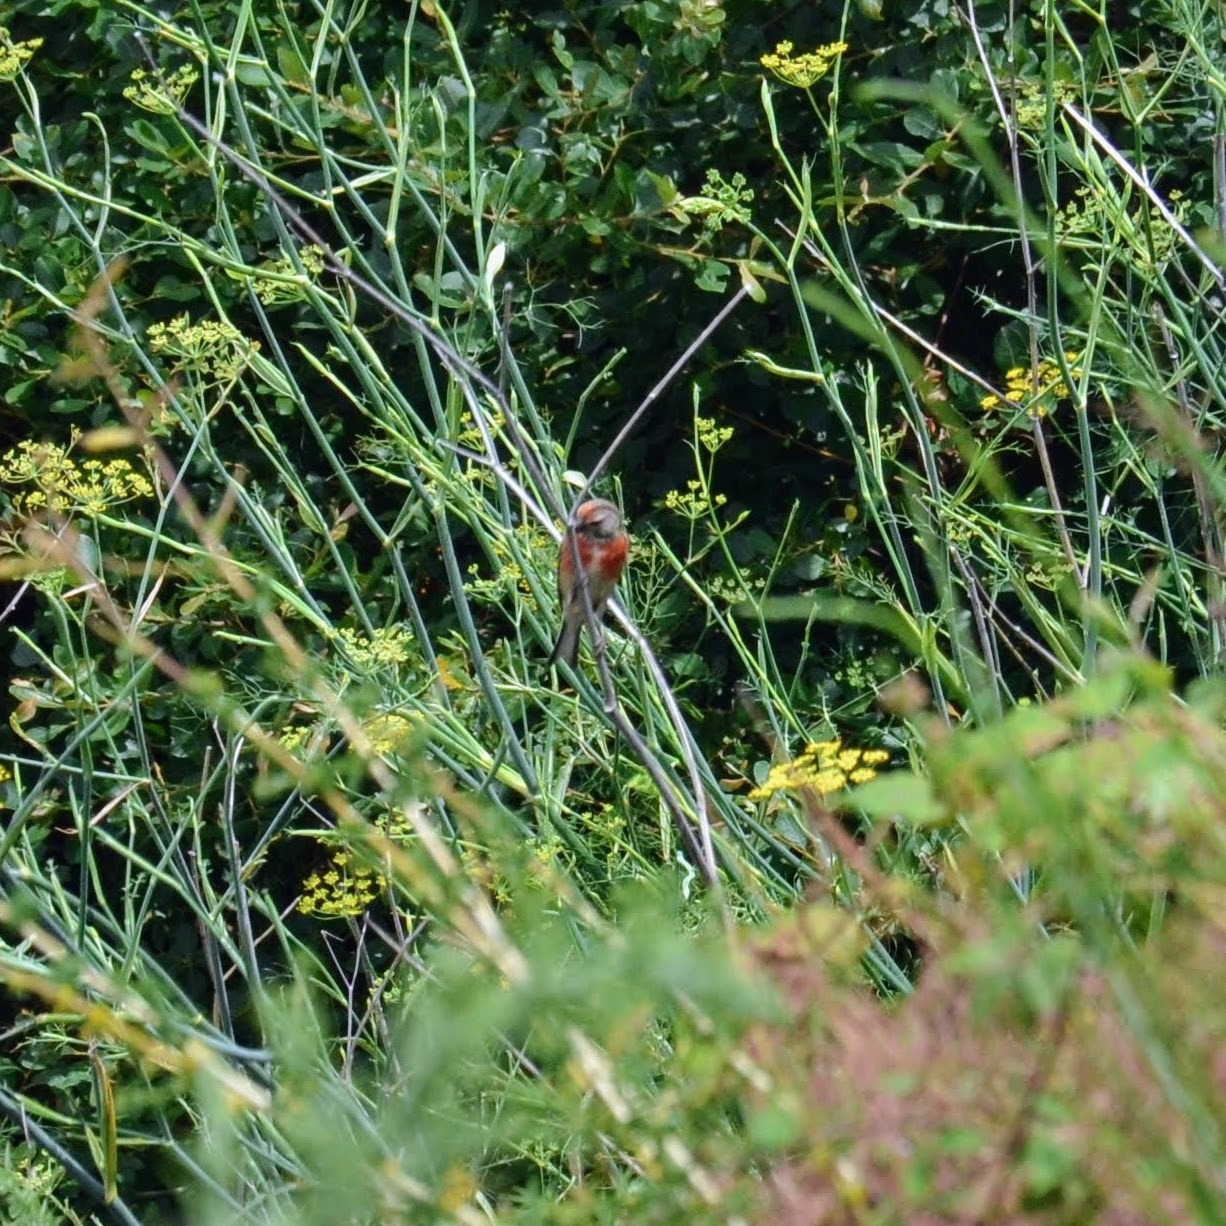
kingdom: Animalia
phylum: Chordata
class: Aves
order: Passeriformes
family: Fringillidae
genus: Linaria
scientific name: Linaria cannabina
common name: Common linnet
